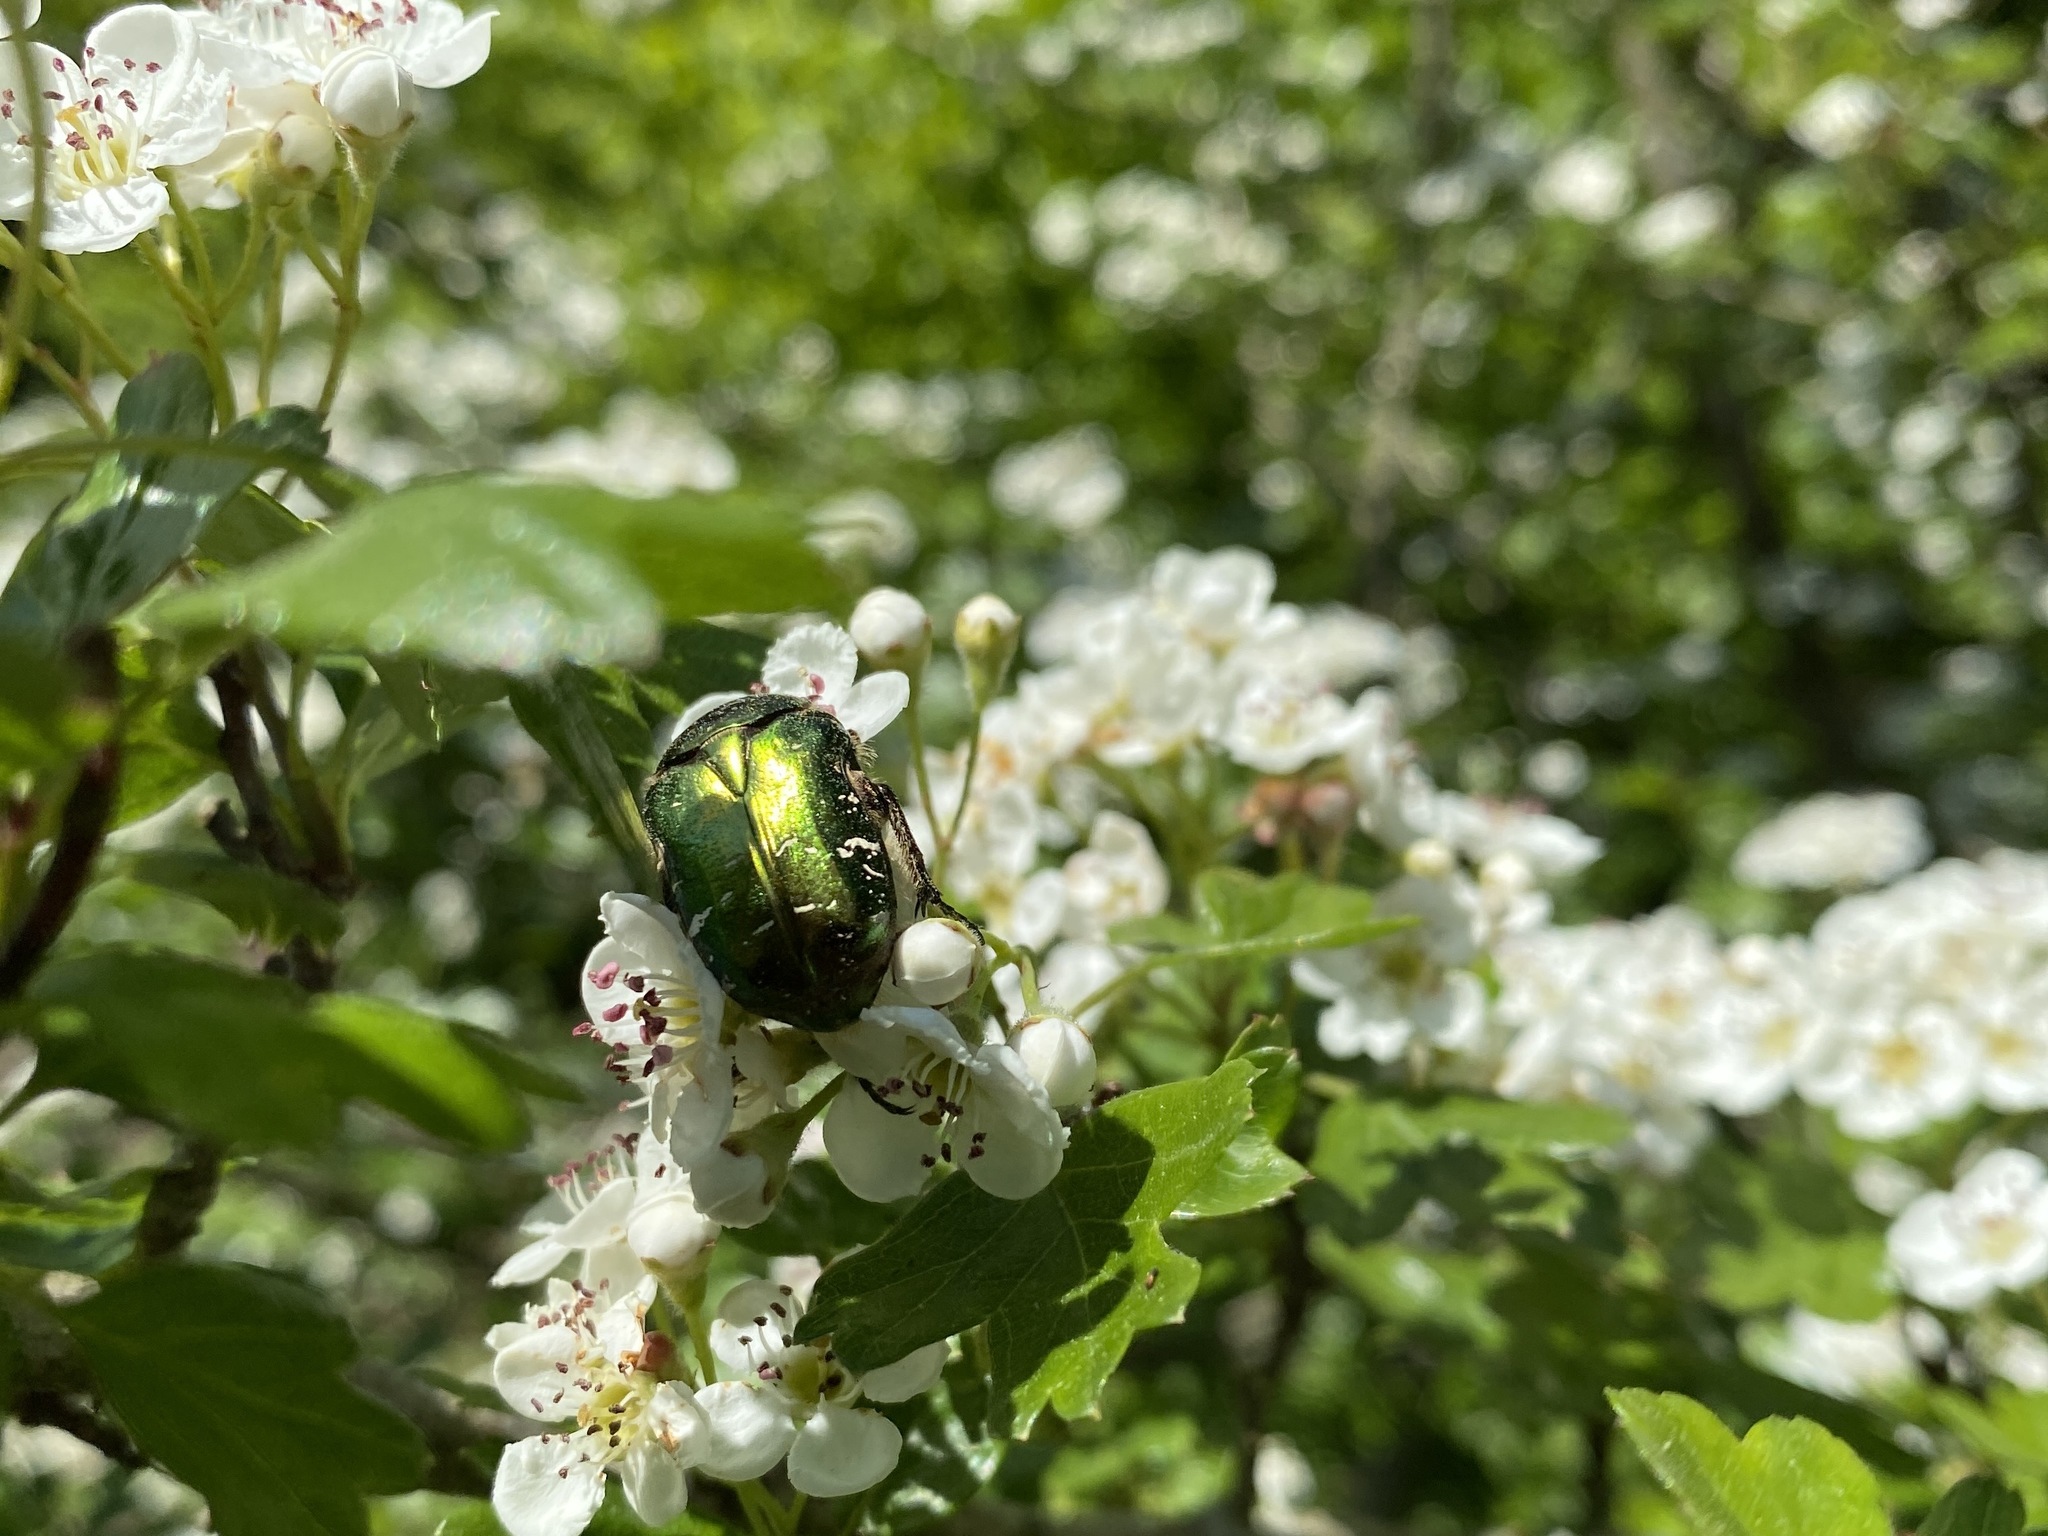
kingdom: Animalia
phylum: Arthropoda
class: Insecta
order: Coleoptera
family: Scarabaeidae
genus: Cetonia
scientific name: Cetonia aurata
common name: Rose chafer
